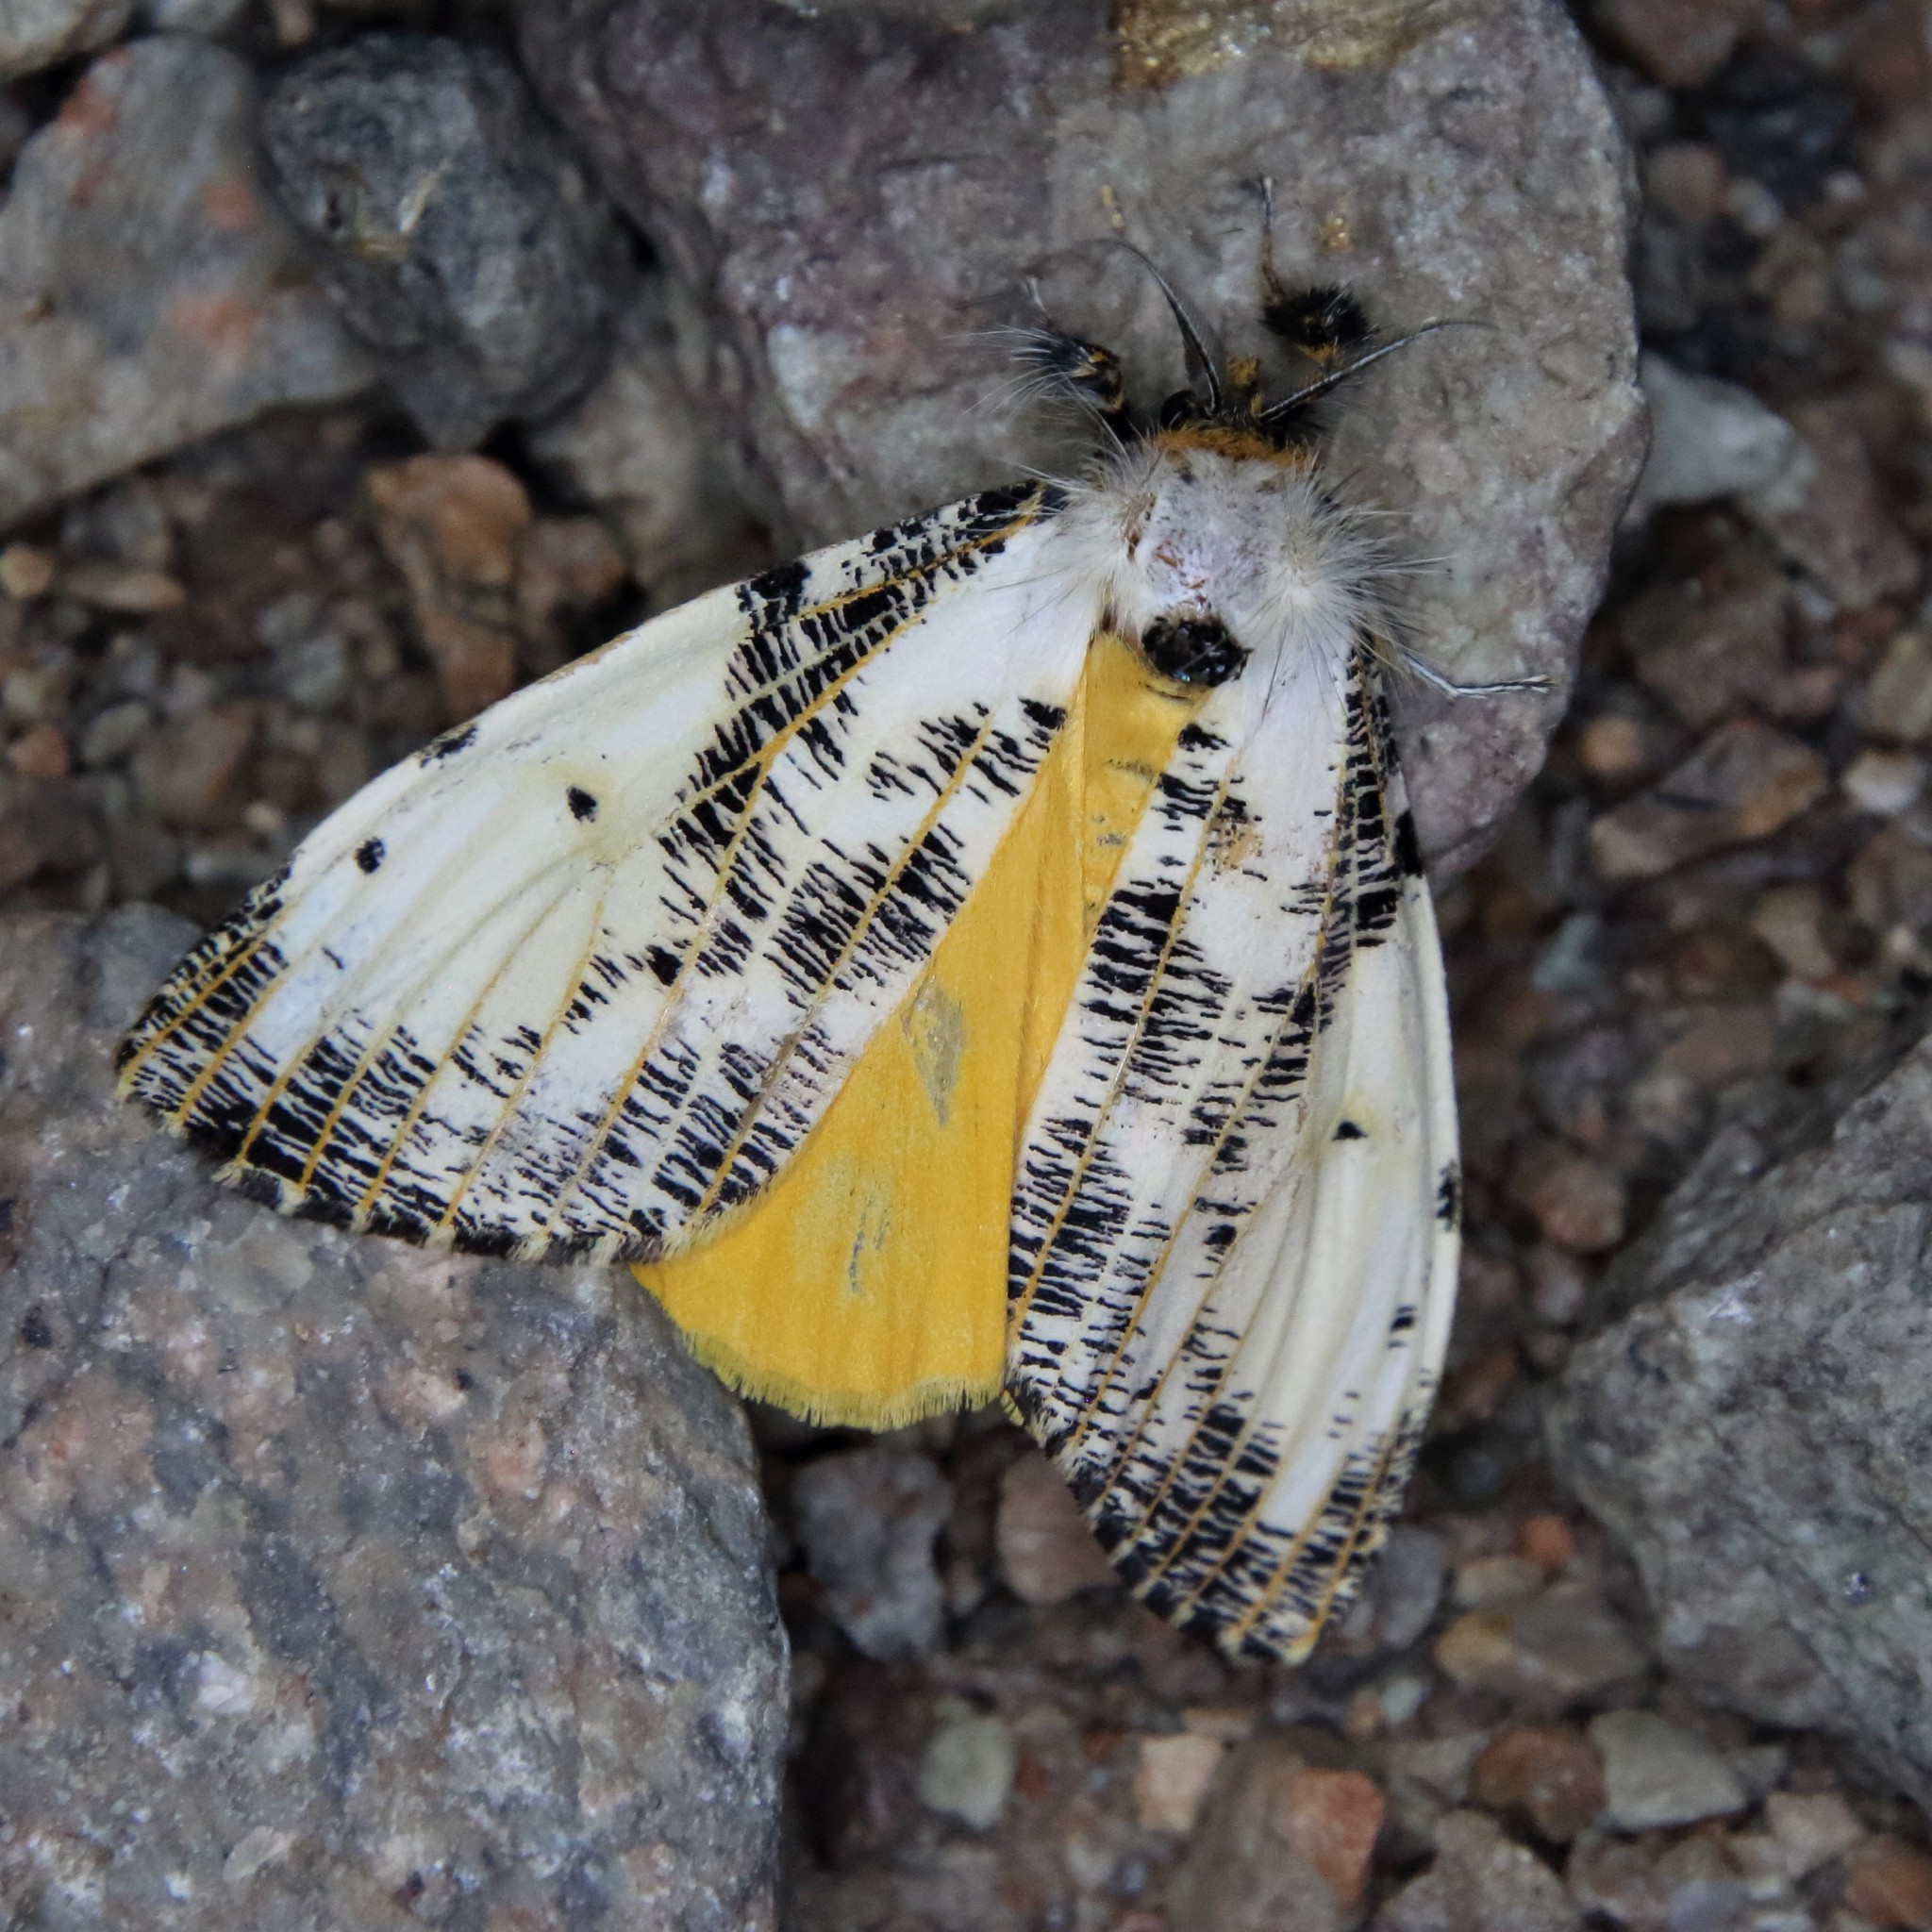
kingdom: Animalia
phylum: Arthropoda
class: Insecta
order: Lepidoptera
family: Erebidae
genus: Locharna
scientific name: Locharna strigipennis
